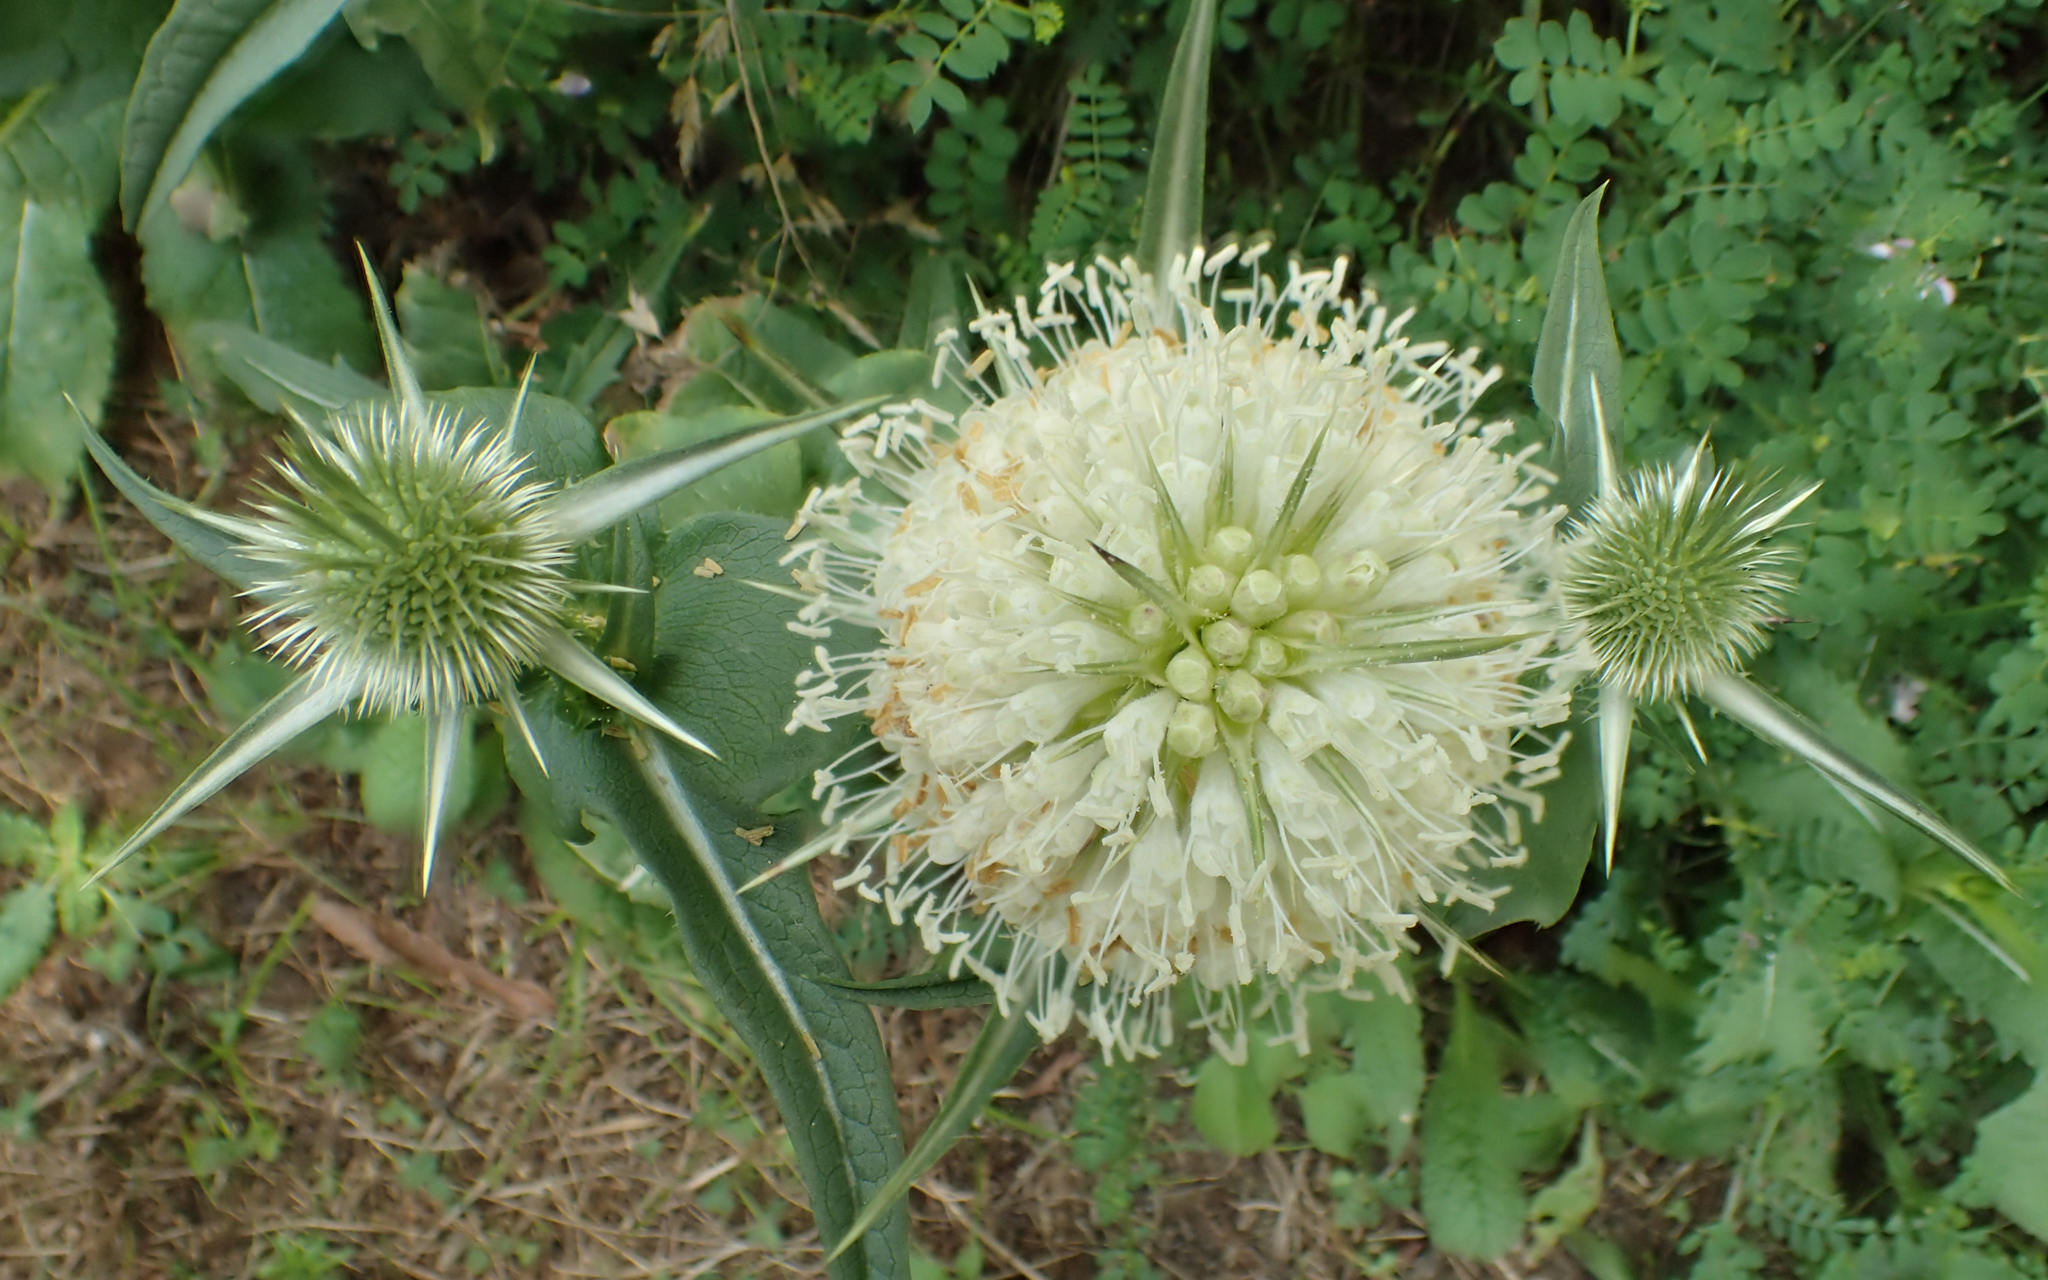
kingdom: Plantae
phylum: Tracheophyta
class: Magnoliopsida
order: Dipsacales
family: Caprifoliaceae
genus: Dipsacus
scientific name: Dipsacus laciniatus
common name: Cut-leaved teasel
